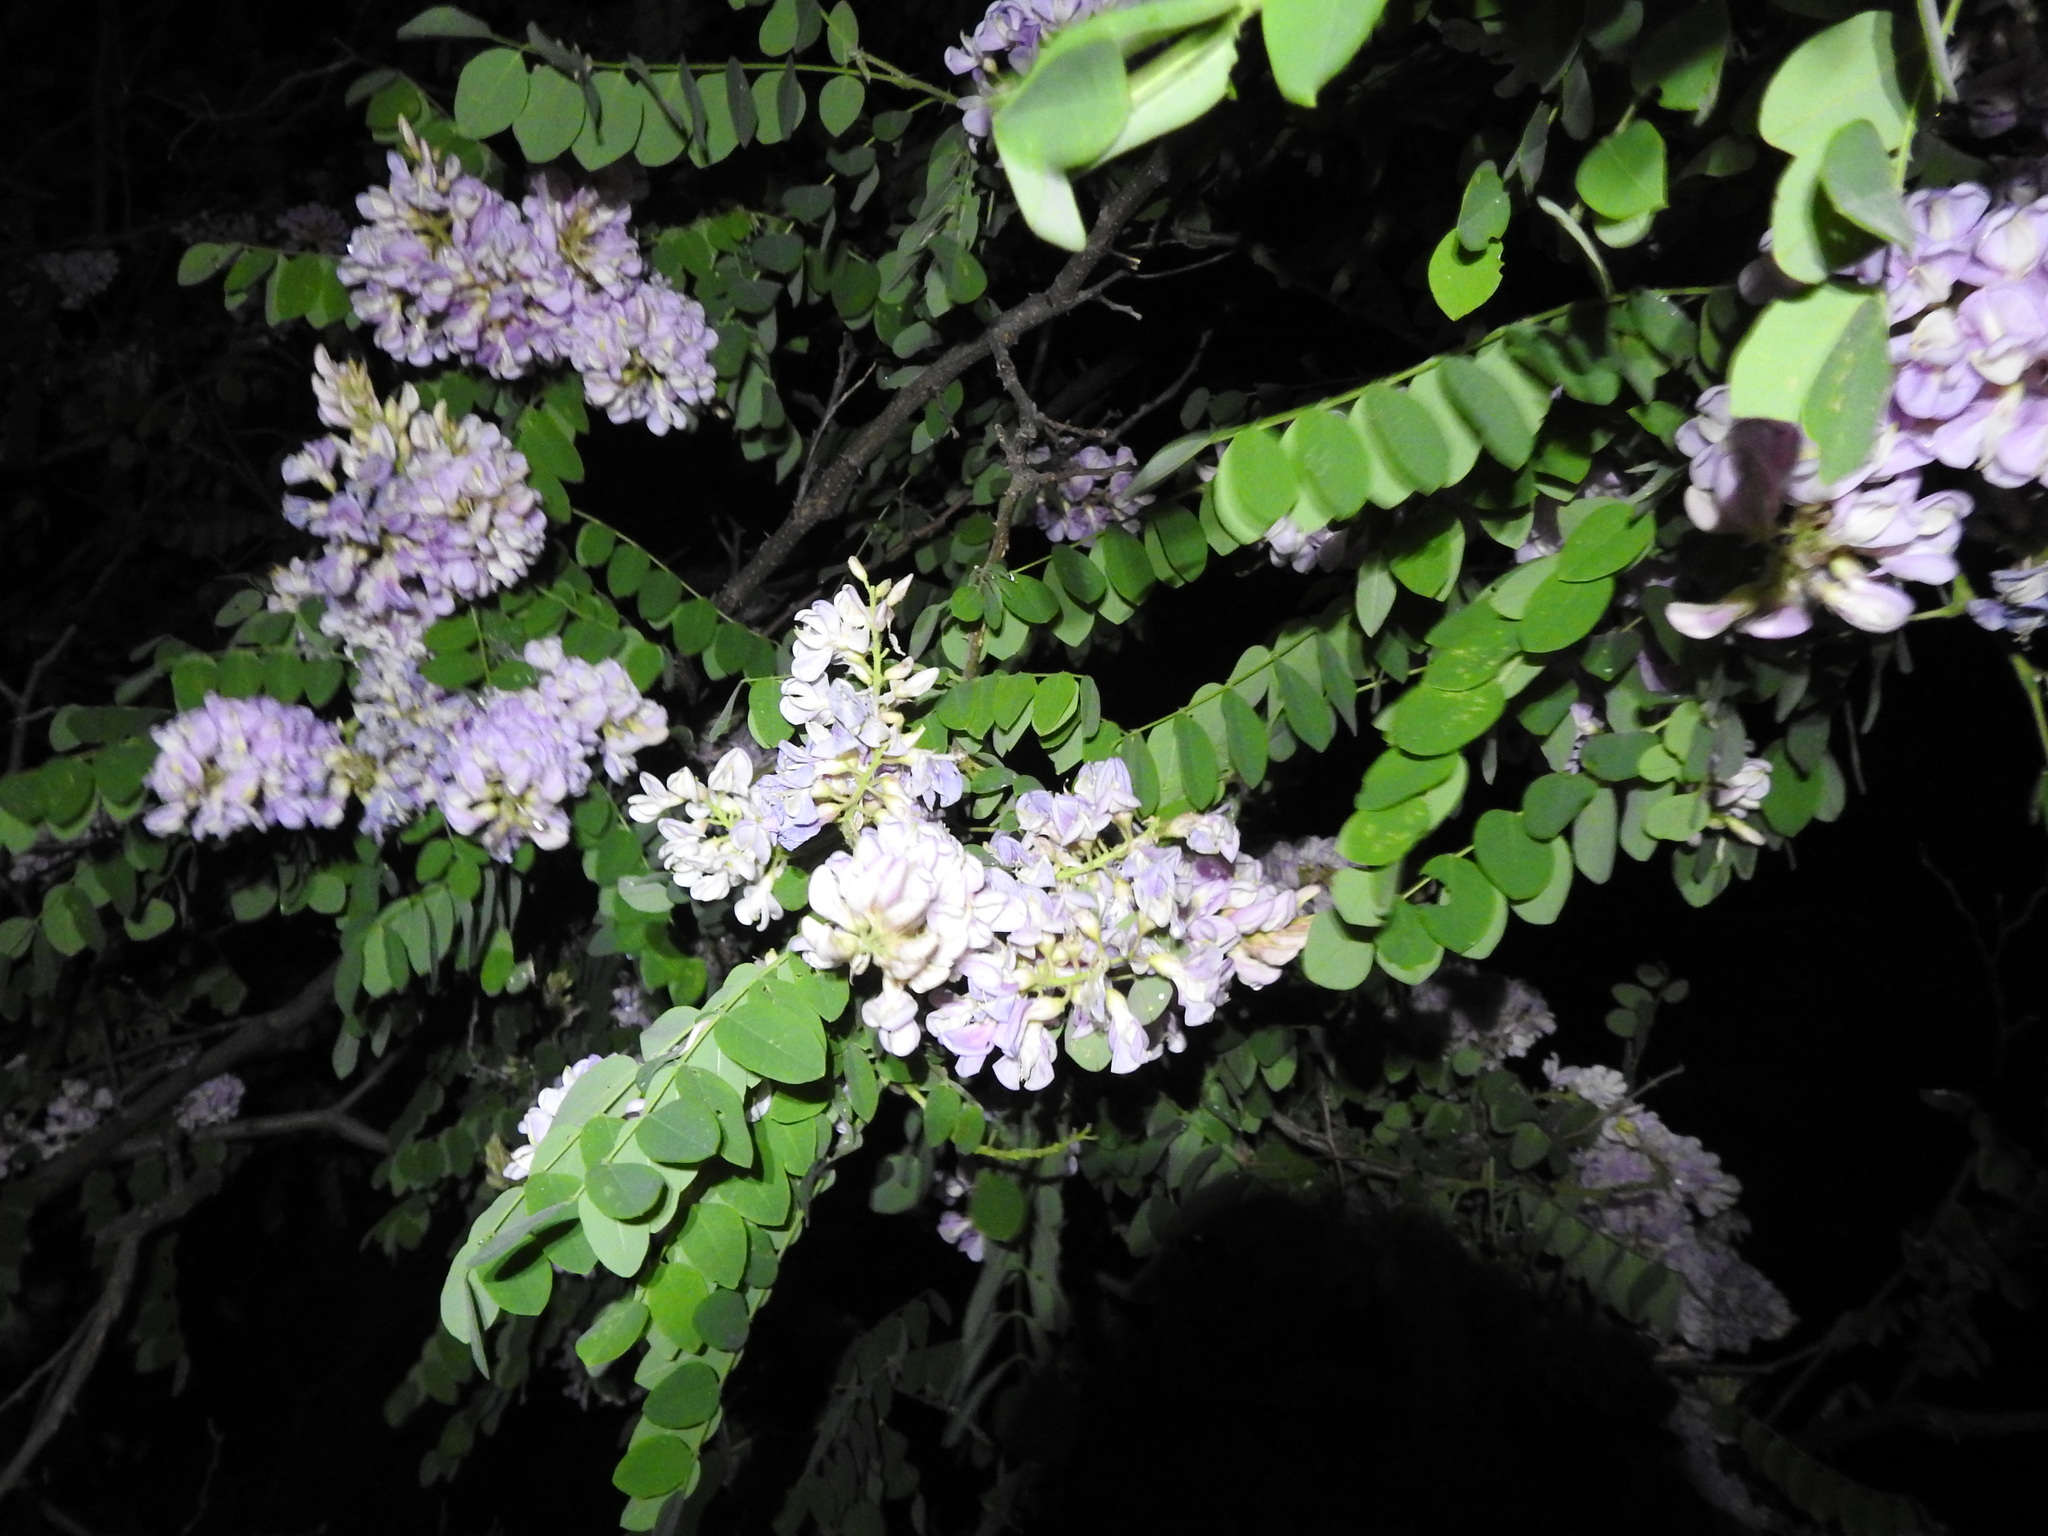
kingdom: Plantae
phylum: Tracheophyta
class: Magnoliopsida
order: Fabales
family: Fabaceae
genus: Robinia
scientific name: Robinia neomexicana
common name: New mexico locust
